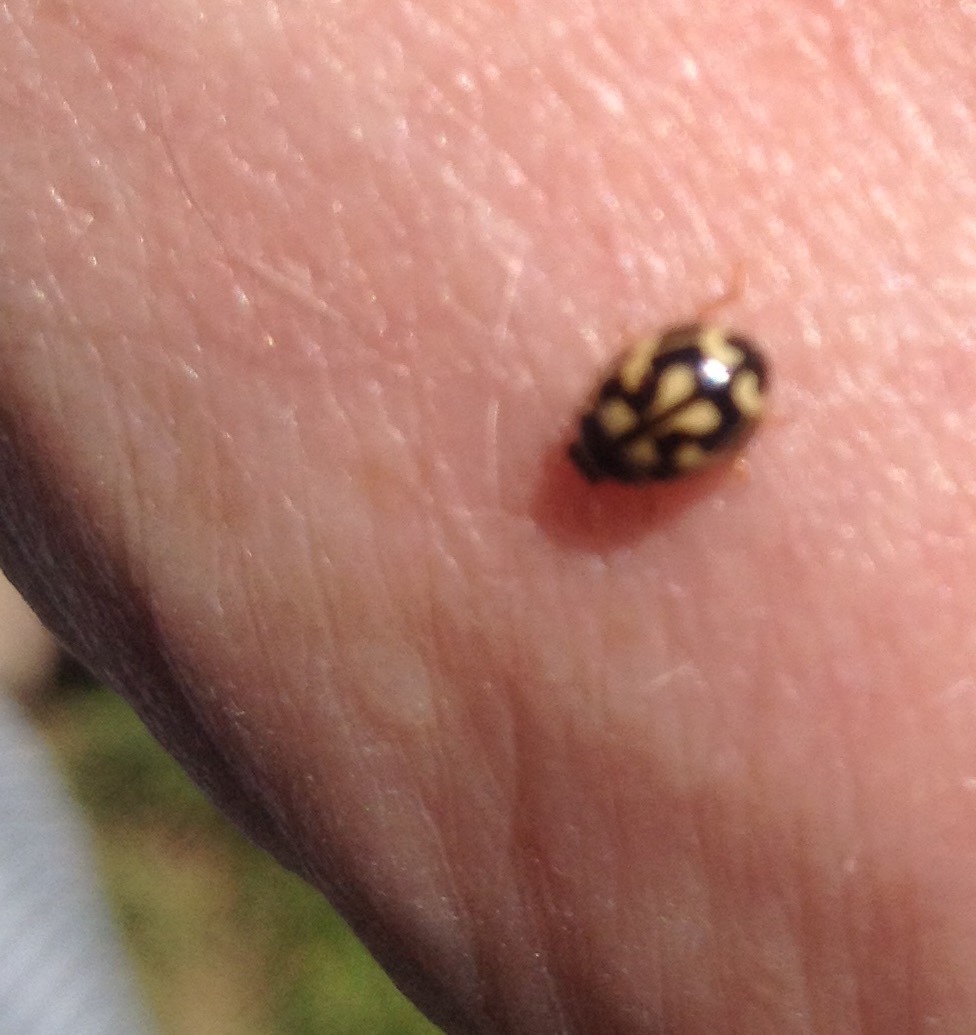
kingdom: Animalia
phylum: Arthropoda
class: Insecta
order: Coleoptera
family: Coccinellidae
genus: Propylaea
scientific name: Propylaea quatuordecimpunctata
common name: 14-spotted ladybird beetle
